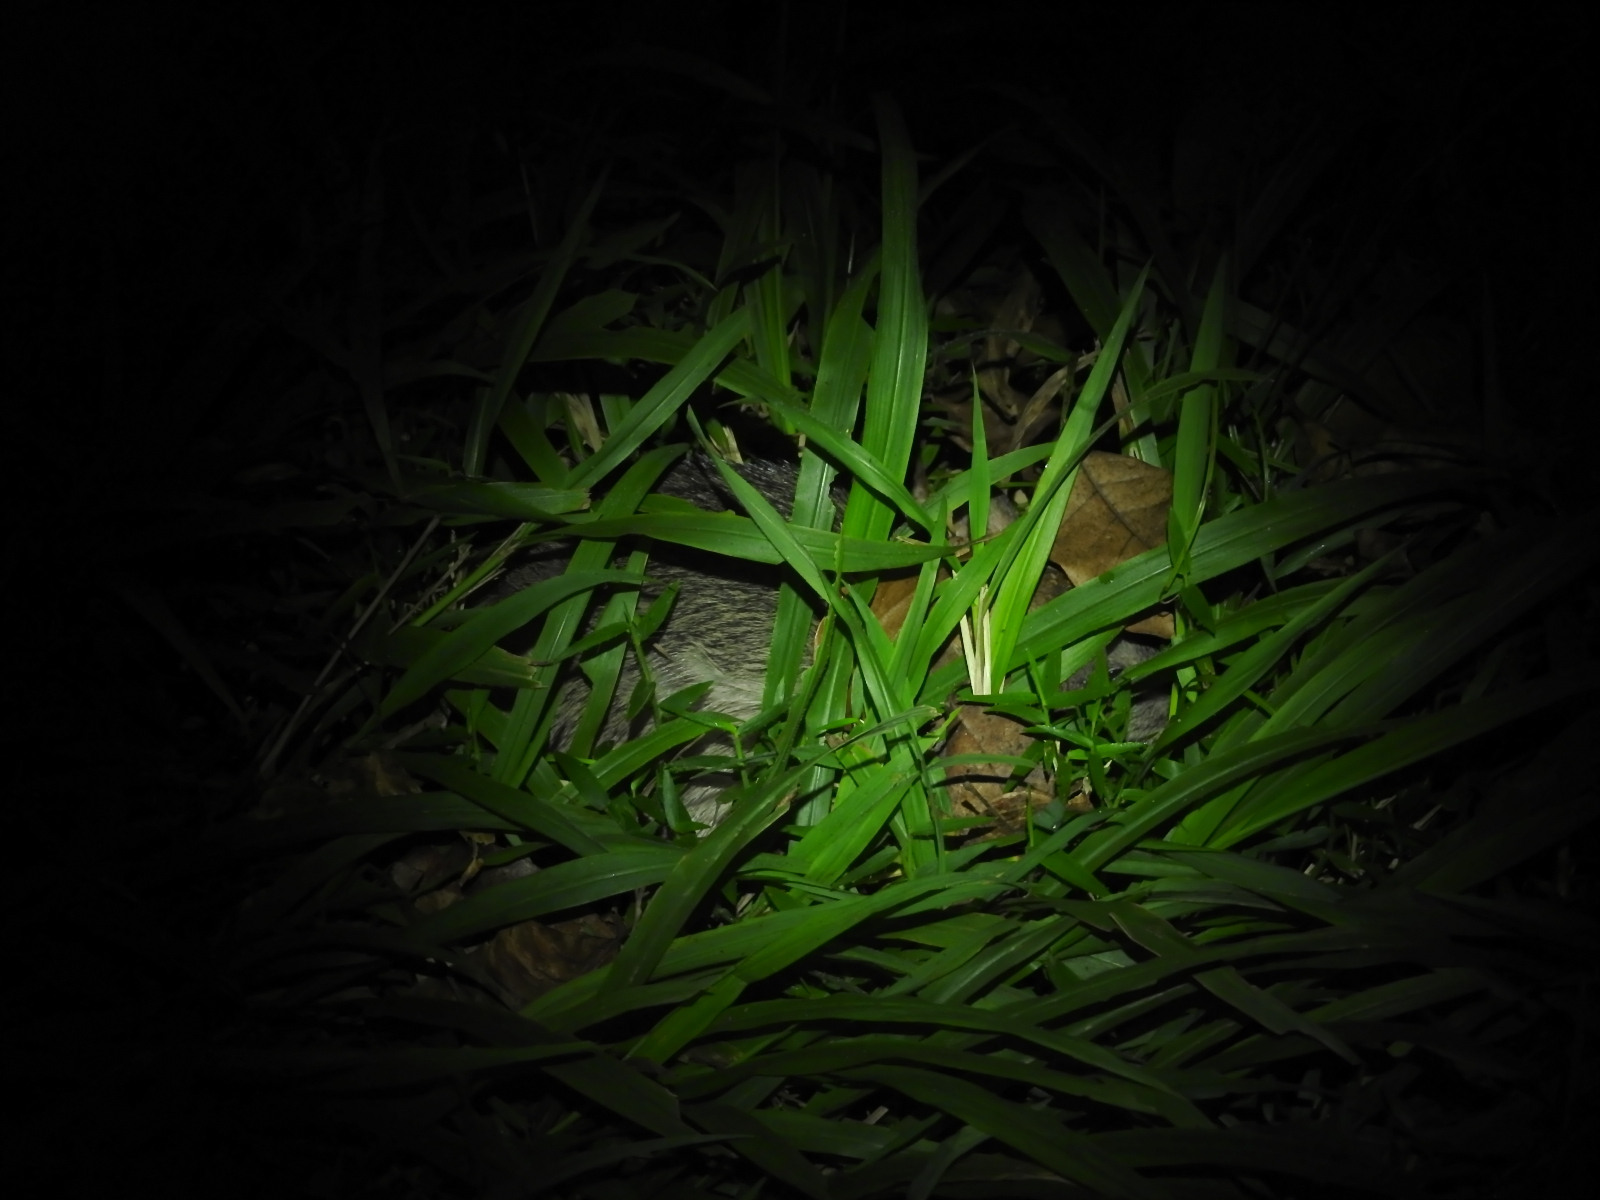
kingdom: Animalia
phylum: Chordata
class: Mammalia
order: Peramelemorphia
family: Peramelidae
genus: Perameles
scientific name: Perameles pallescens
